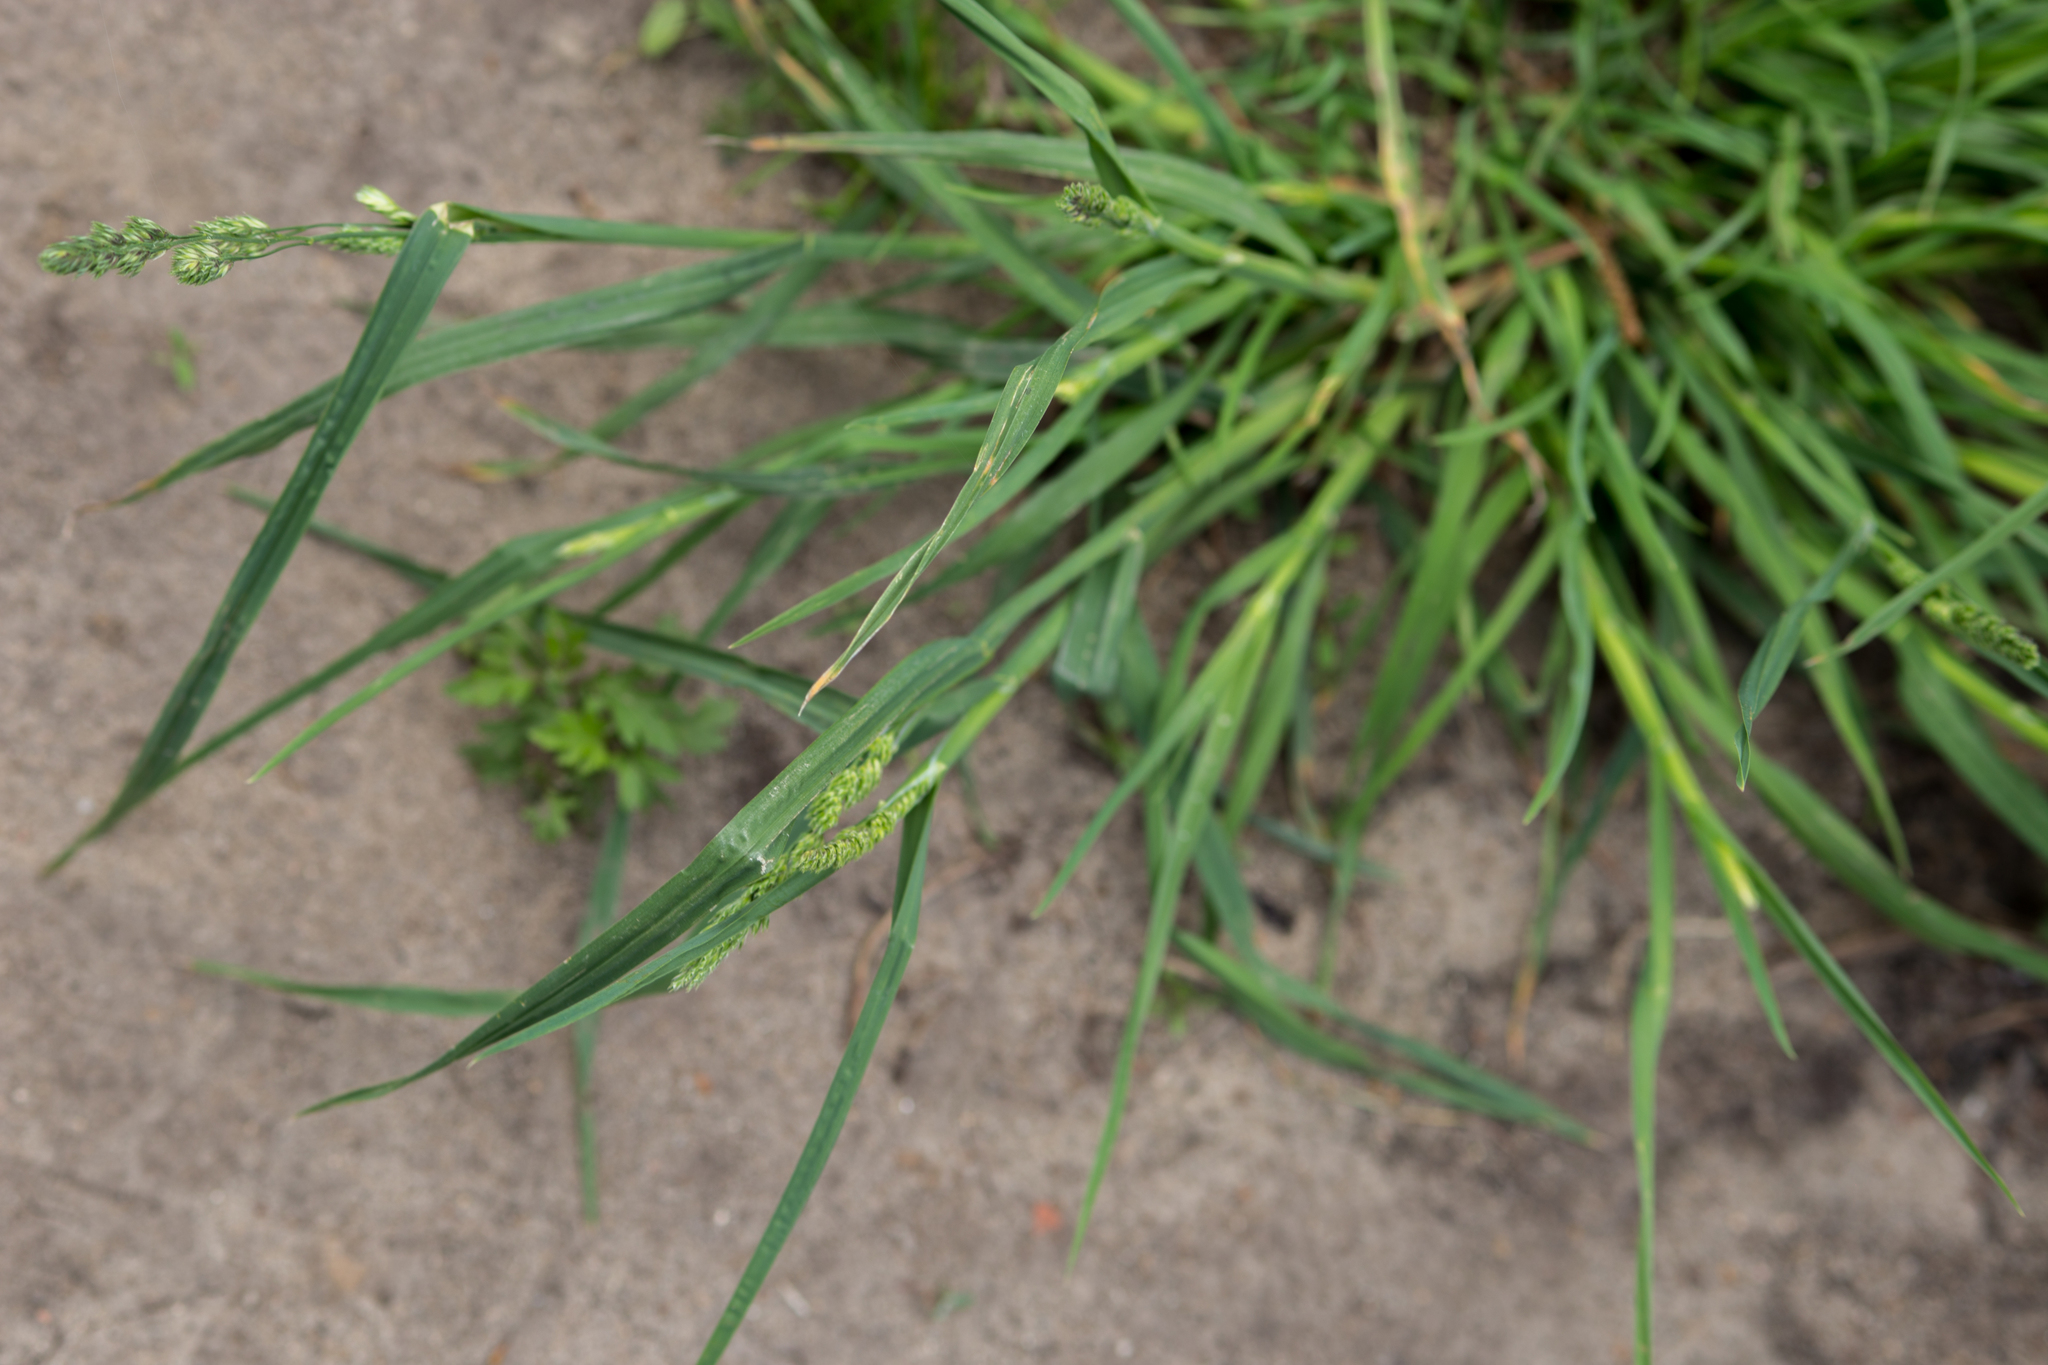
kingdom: Plantae
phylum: Tracheophyta
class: Liliopsida
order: Poales
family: Poaceae
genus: Dactylis
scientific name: Dactylis glomerata
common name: Orchardgrass
